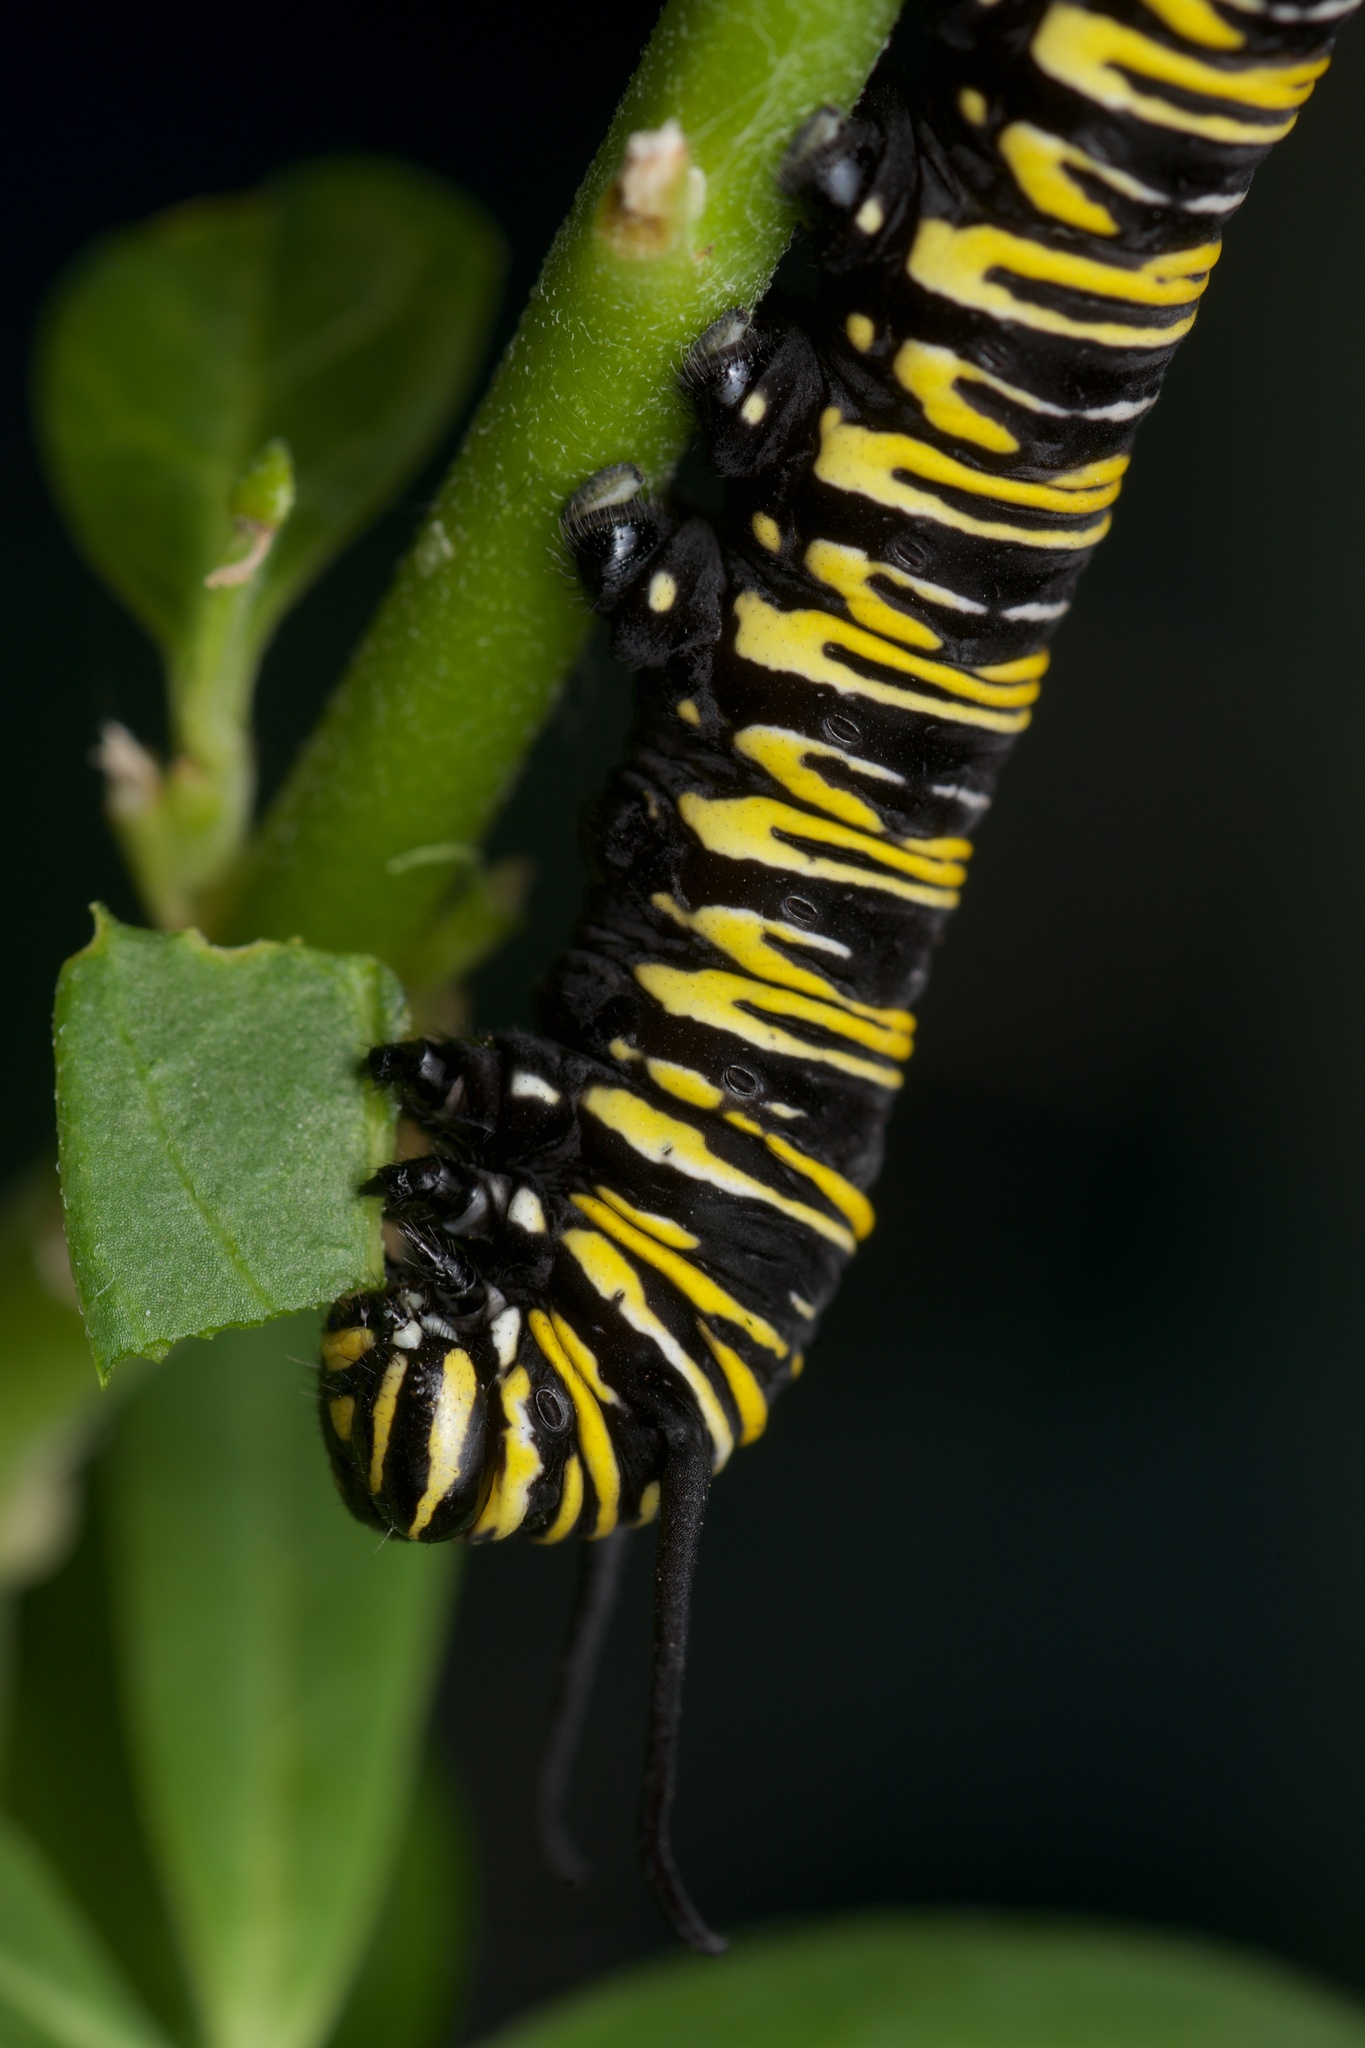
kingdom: Animalia
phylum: Arthropoda
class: Insecta
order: Lepidoptera
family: Nymphalidae
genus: Danaus
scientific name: Danaus plexippus
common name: Monarch
